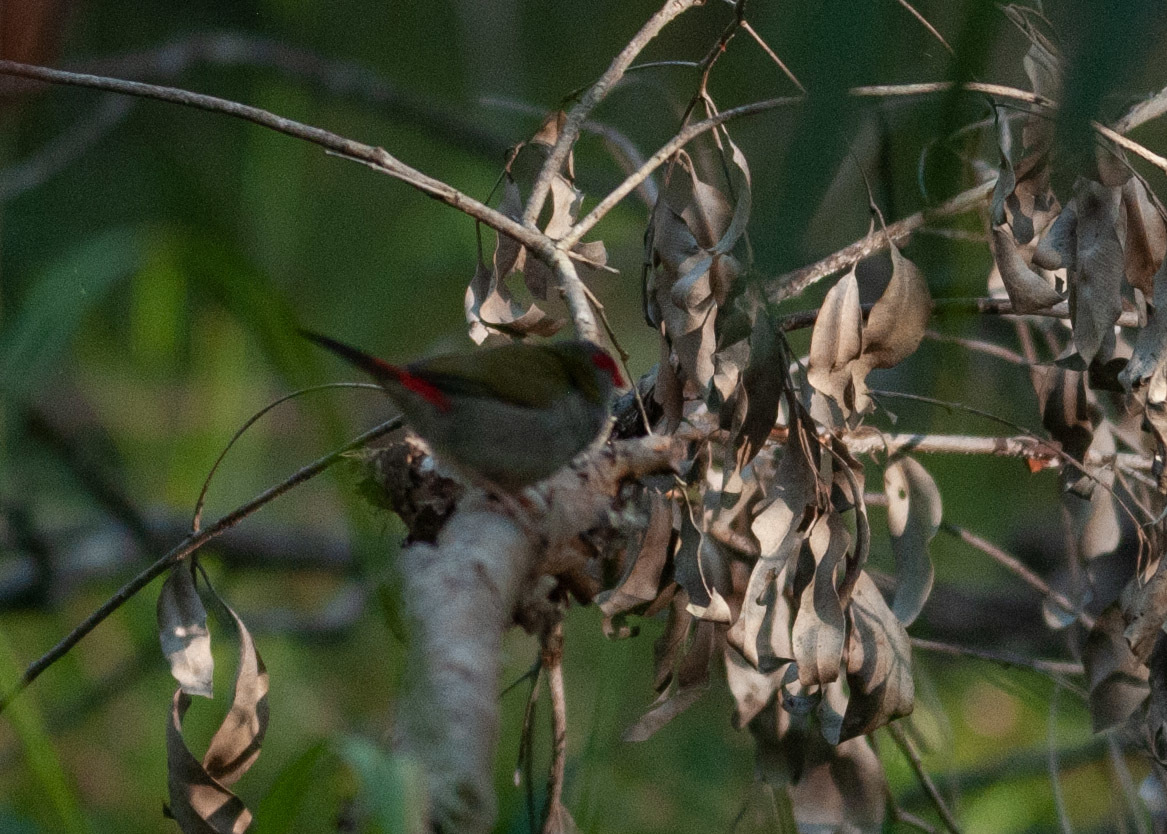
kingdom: Animalia
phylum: Chordata
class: Aves
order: Passeriformes
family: Estrildidae
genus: Neochmia
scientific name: Neochmia temporalis
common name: Red-browed finch
